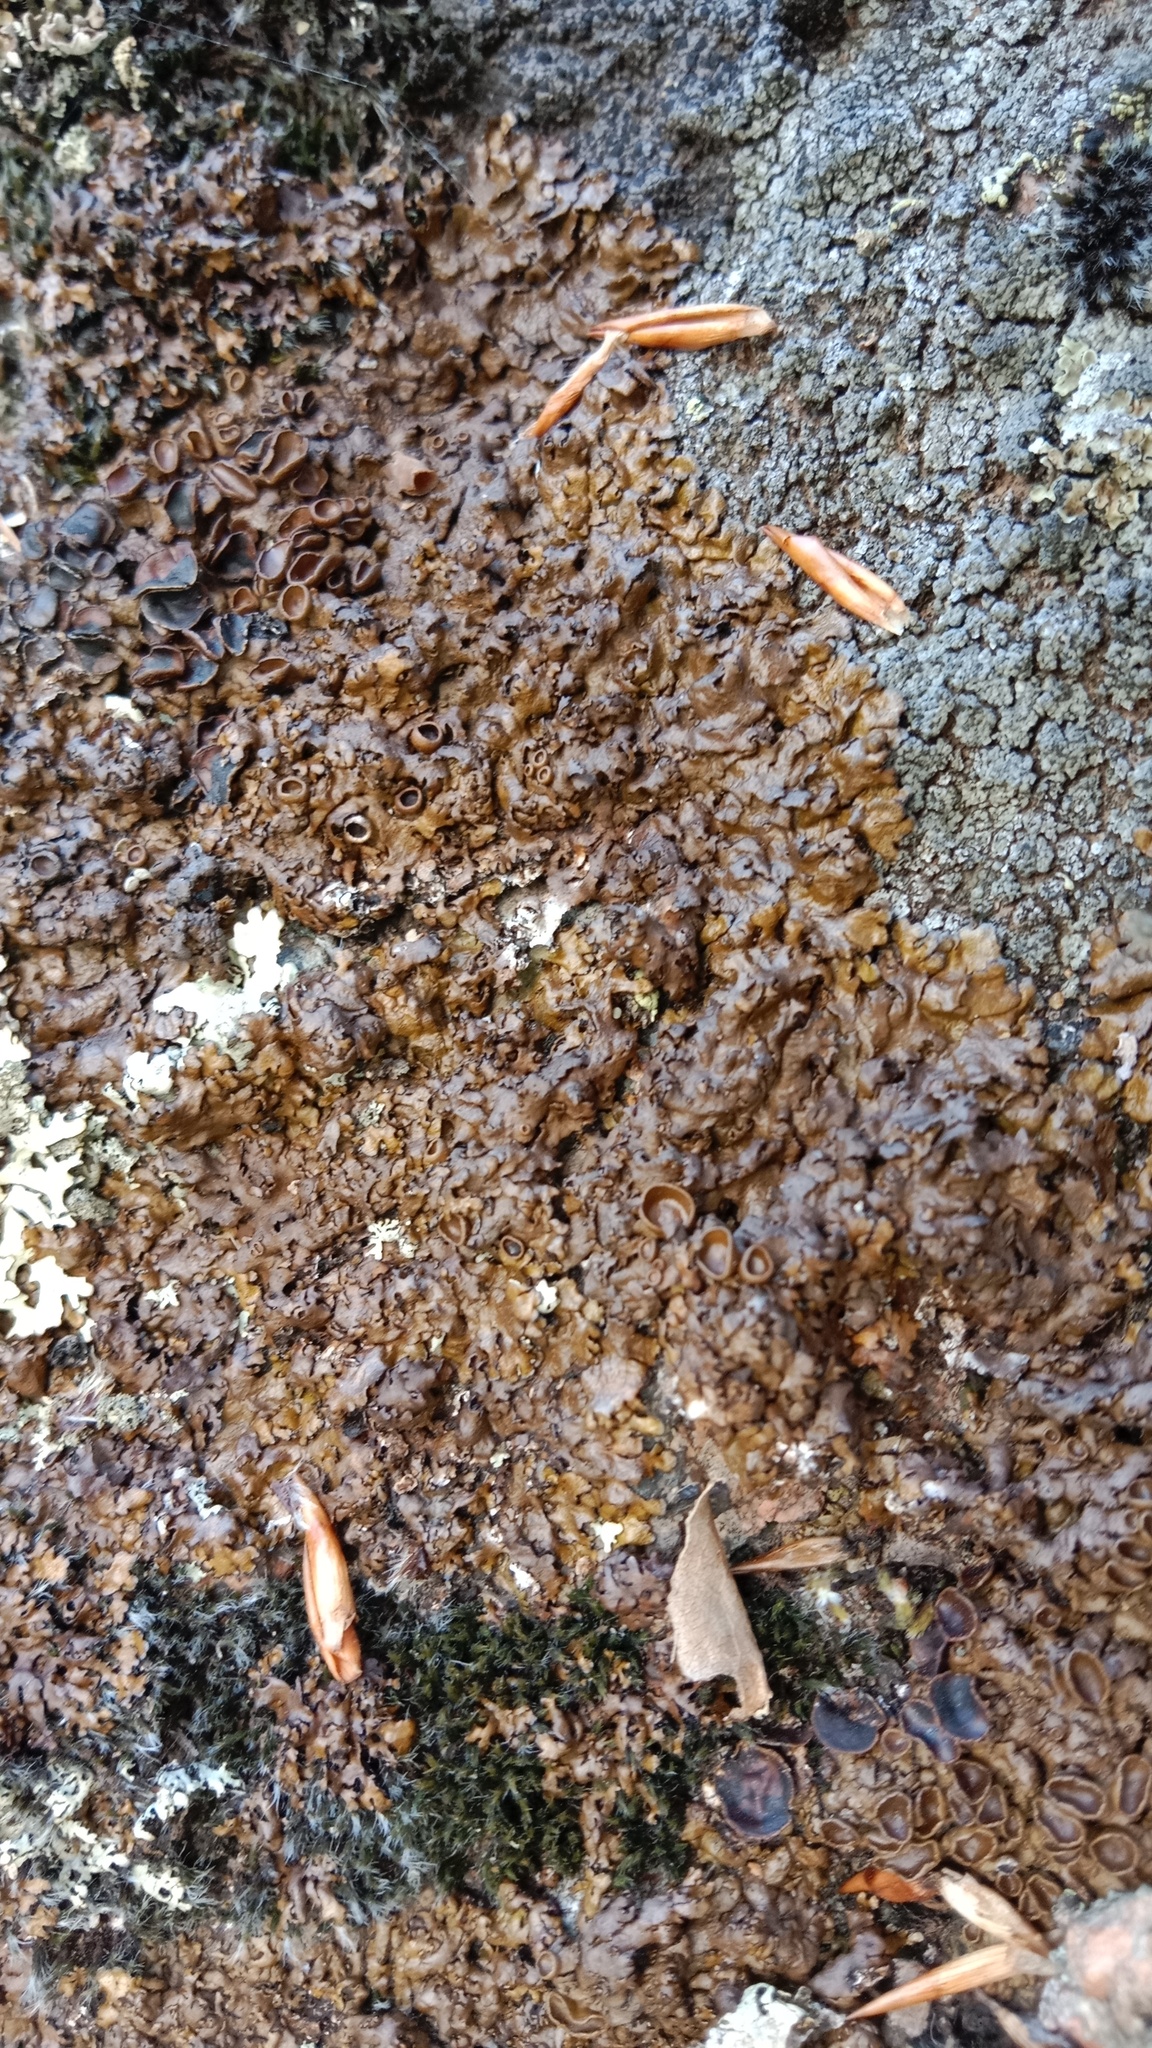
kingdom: Fungi
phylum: Ascomycota
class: Lecanoromycetes
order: Lecanorales
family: Parmeliaceae
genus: Xanthoparmelia
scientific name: Xanthoparmelia pulla
